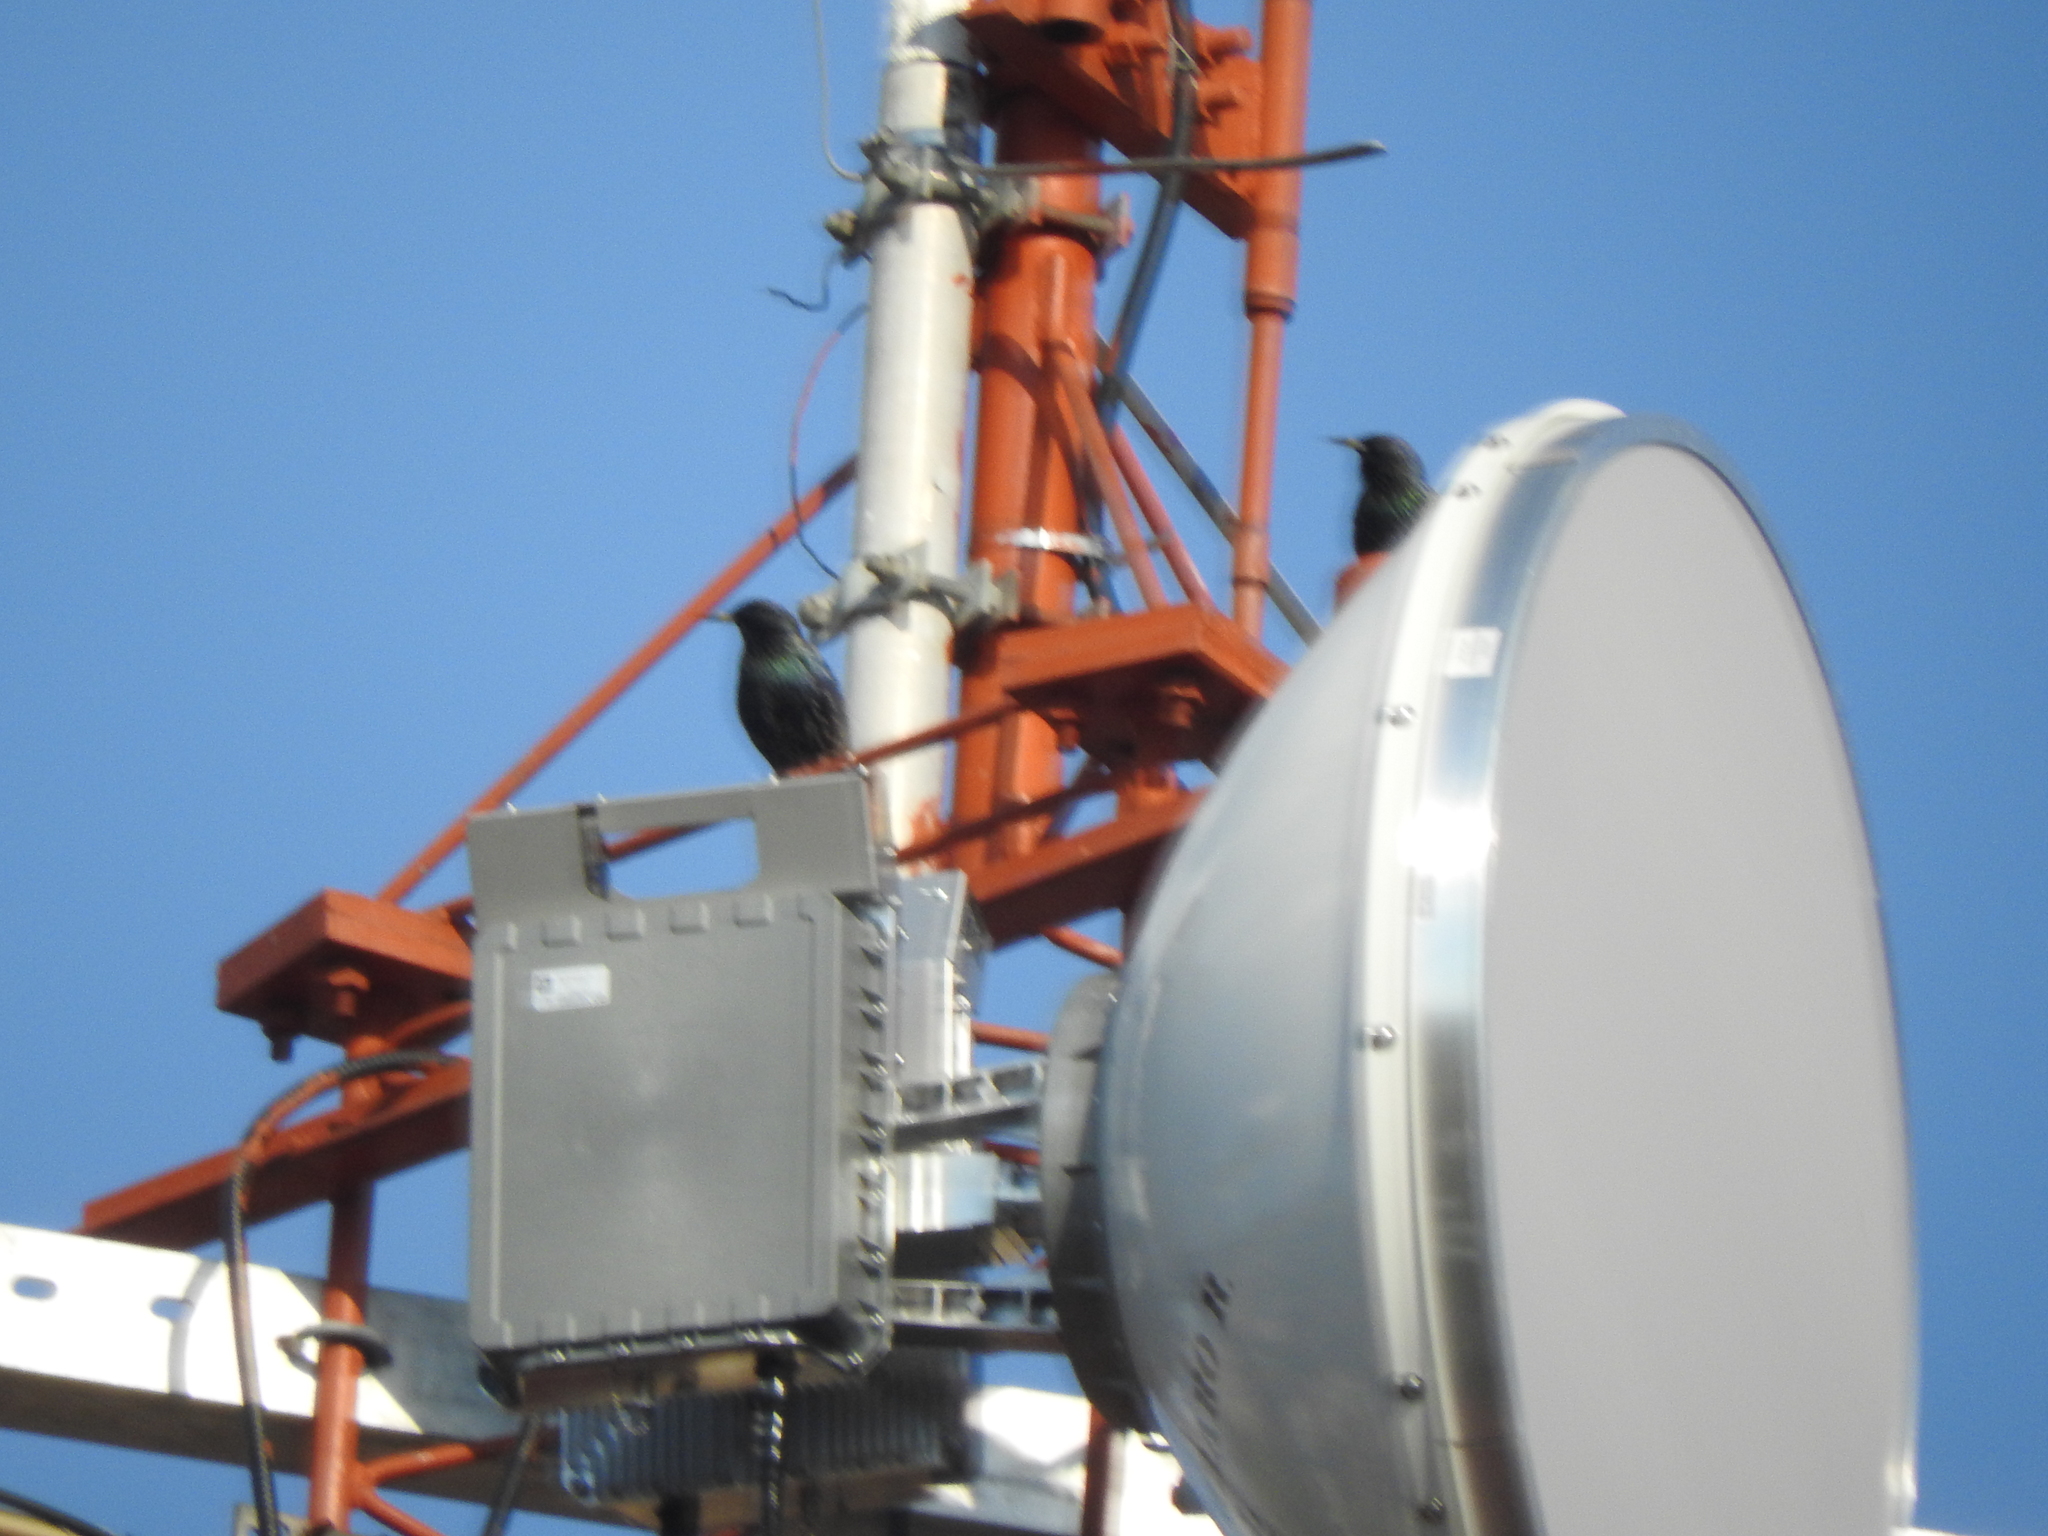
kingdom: Animalia
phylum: Chordata
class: Aves
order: Passeriformes
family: Sturnidae
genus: Sturnus
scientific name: Sturnus vulgaris
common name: Common starling
